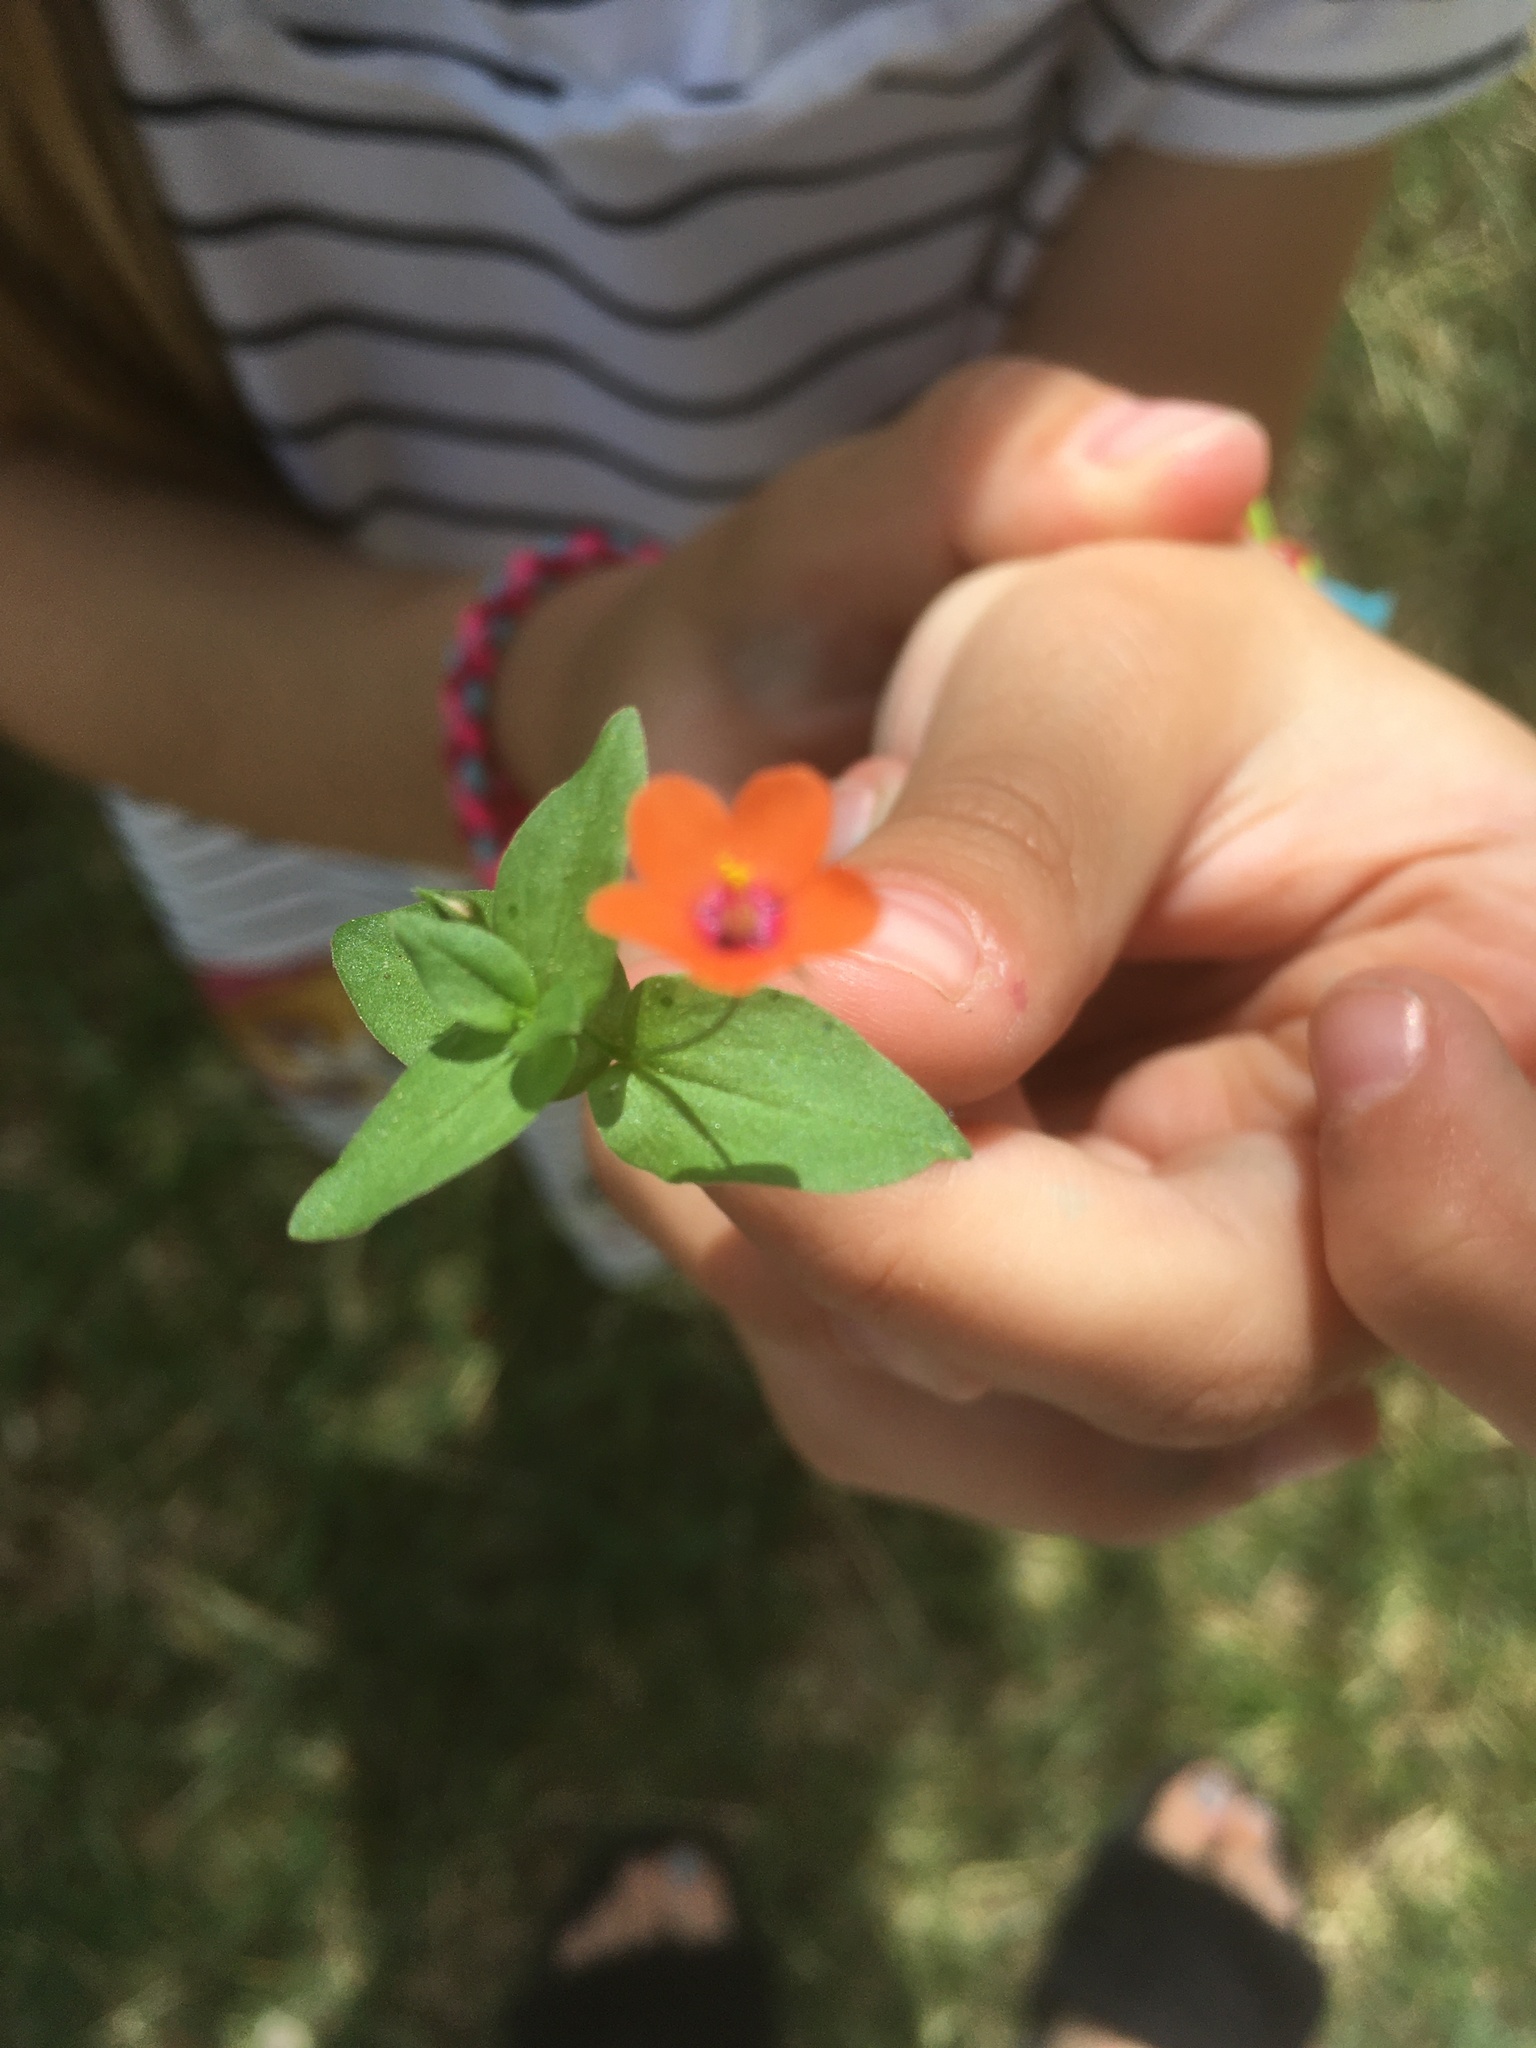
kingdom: Plantae
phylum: Tracheophyta
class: Magnoliopsida
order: Ericales
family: Primulaceae
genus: Lysimachia
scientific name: Lysimachia arvensis
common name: Scarlet pimpernel
